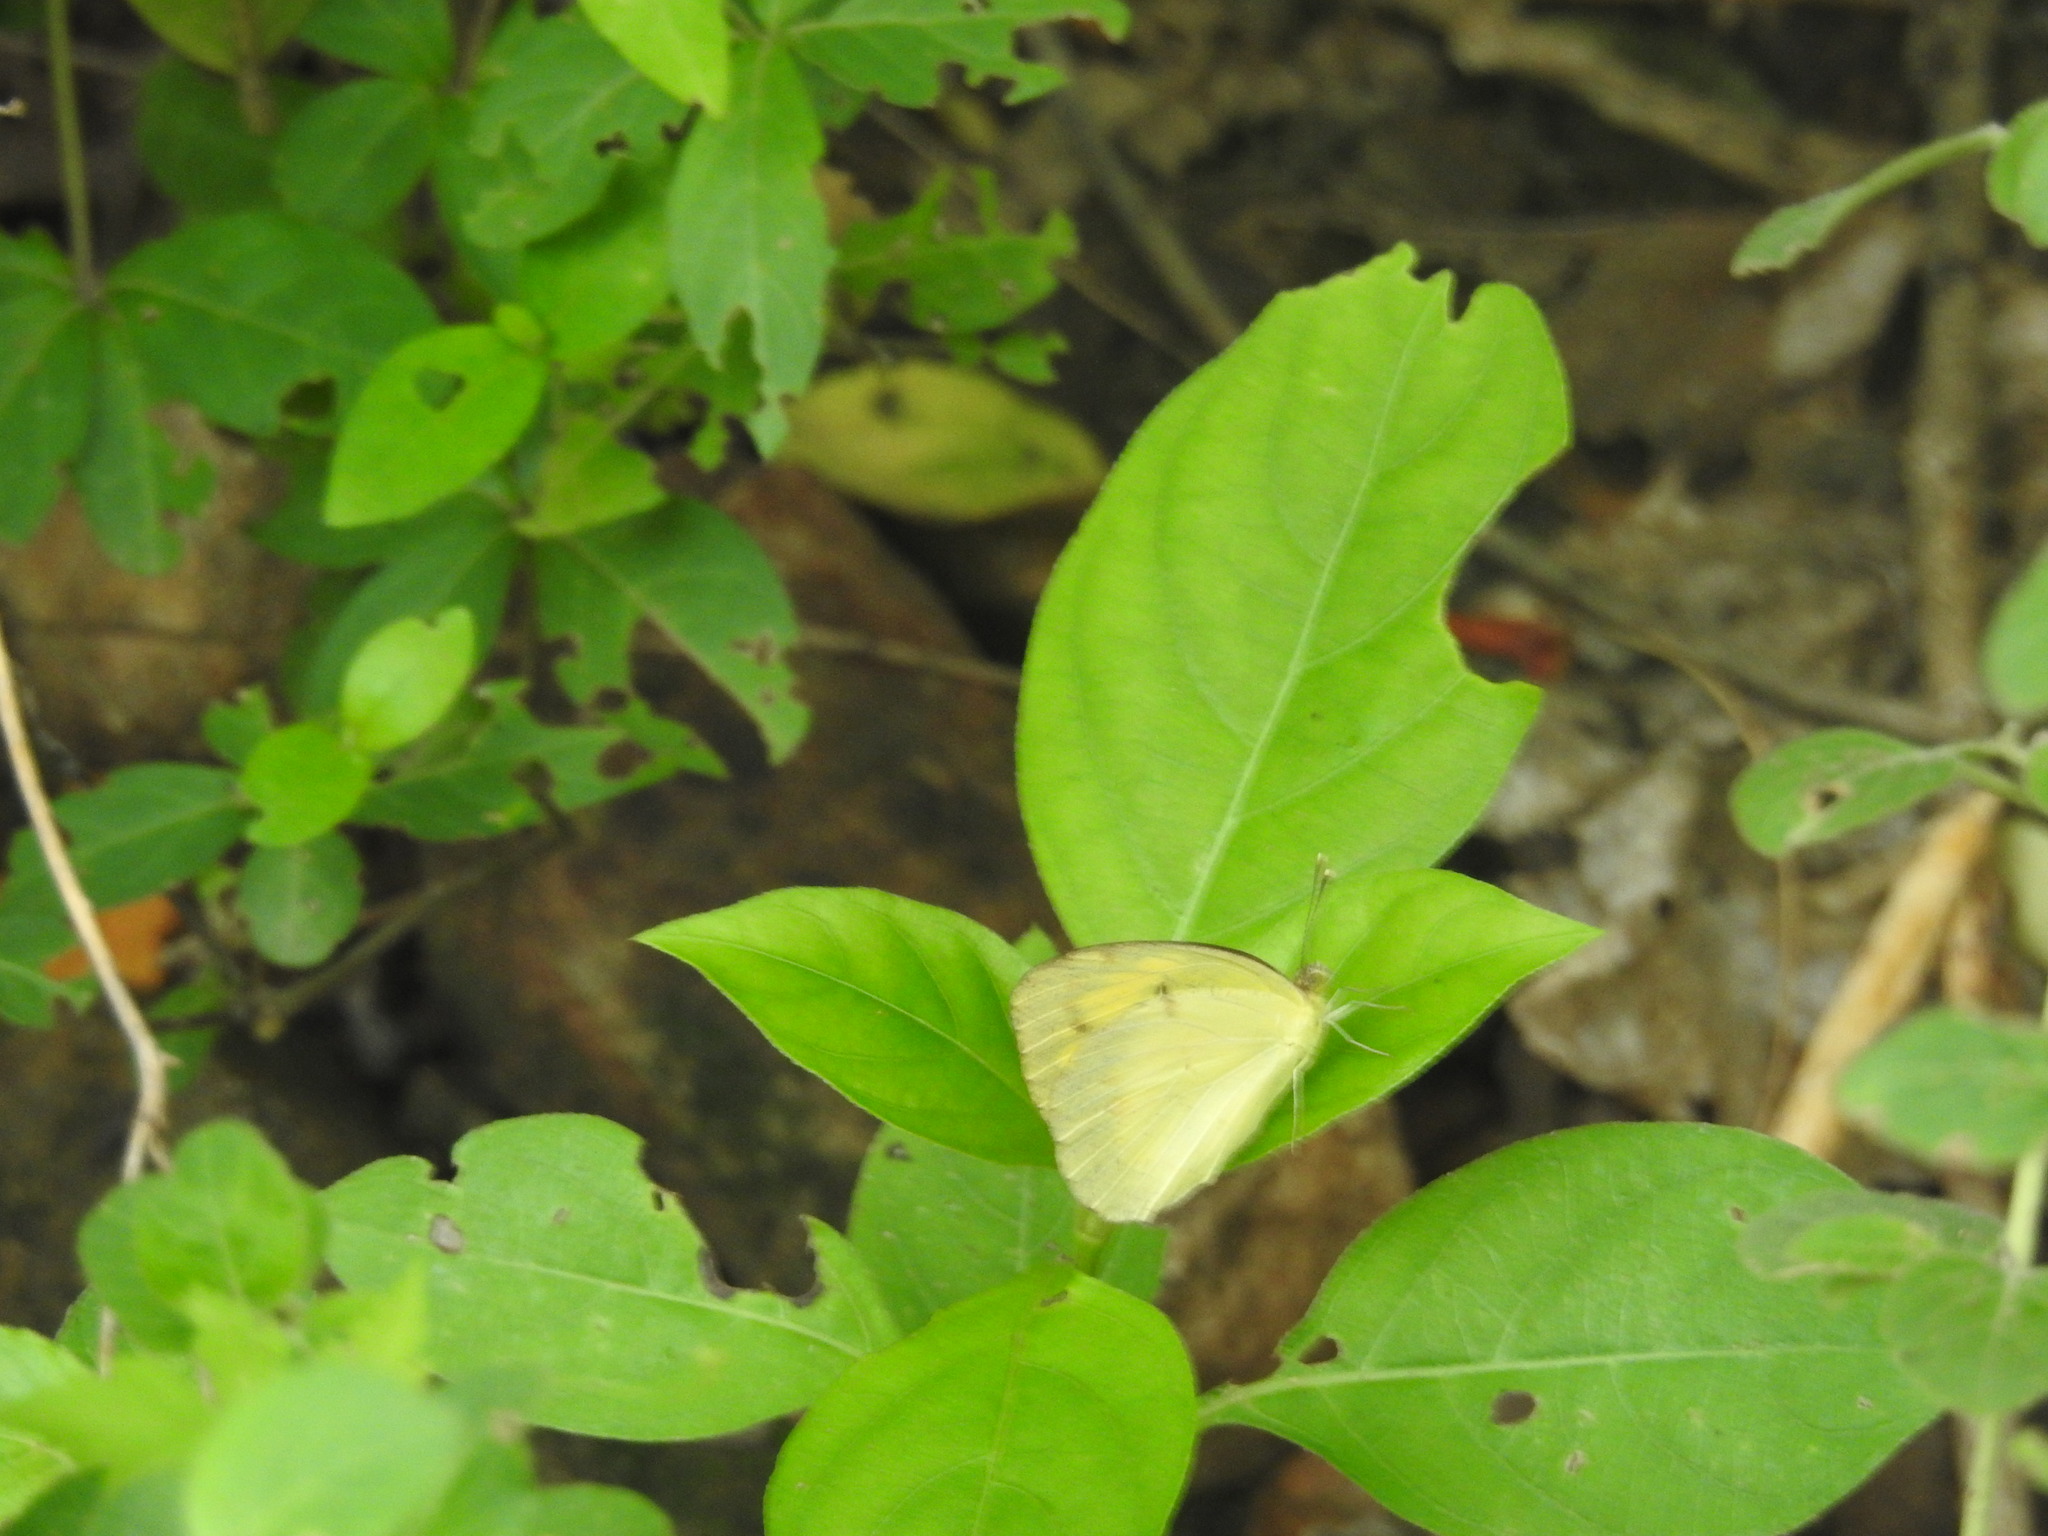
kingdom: Animalia
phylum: Arthropoda
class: Insecta
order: Lepidoptera
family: Pieridae
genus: Ixias
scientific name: Ixias pyrene
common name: Yellow orange tip
